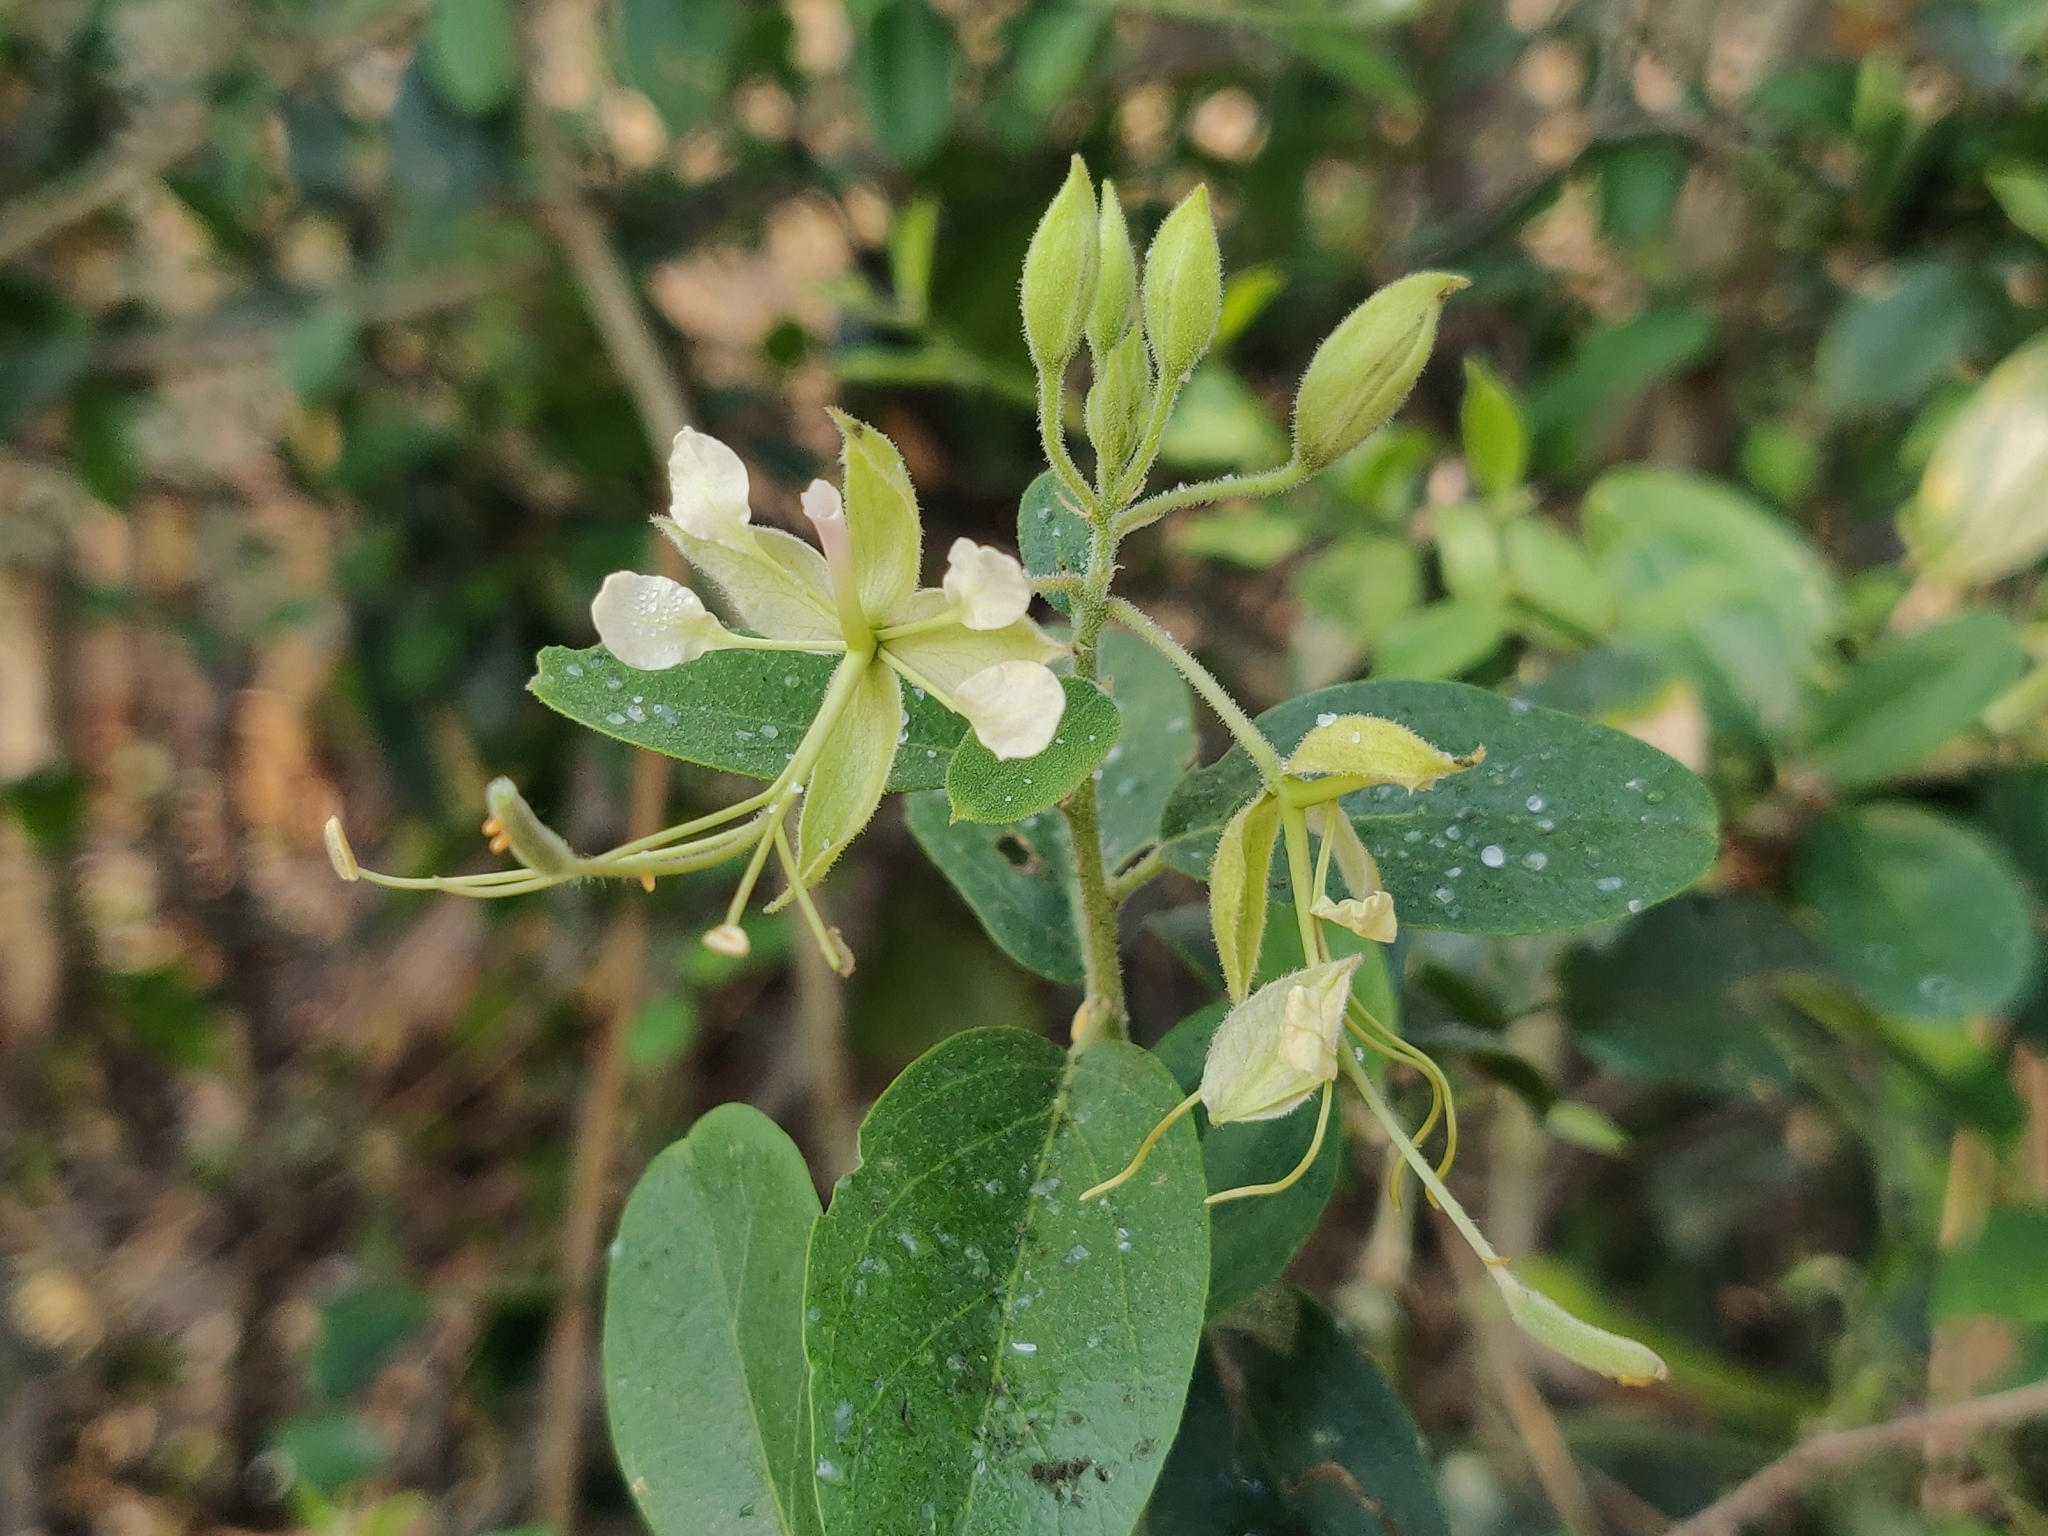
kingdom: Plantae
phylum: Tracheophyta
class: Magnoliopsida
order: Brassicales
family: Capparaceae
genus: Cadaba
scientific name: Cadaba fruticosa
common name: Indian cadaba
